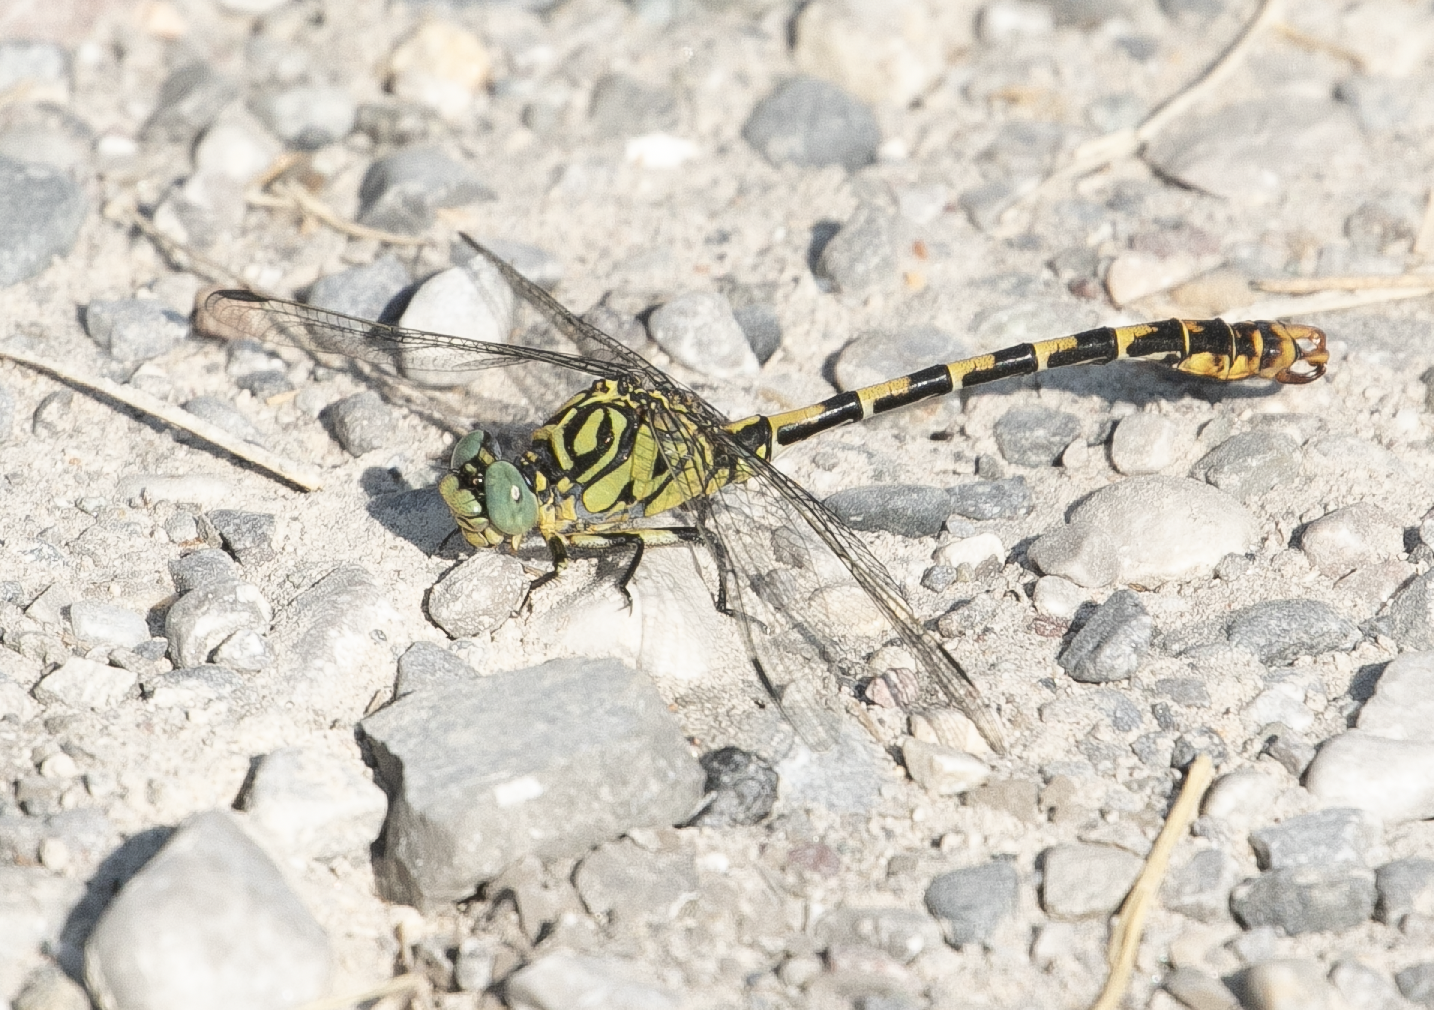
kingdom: Animalia
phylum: Arthropoda
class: Insecta
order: Odonata
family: Gomphidae
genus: Onychogomphus
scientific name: Onychogomphus forcipatus
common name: Small pincertail
